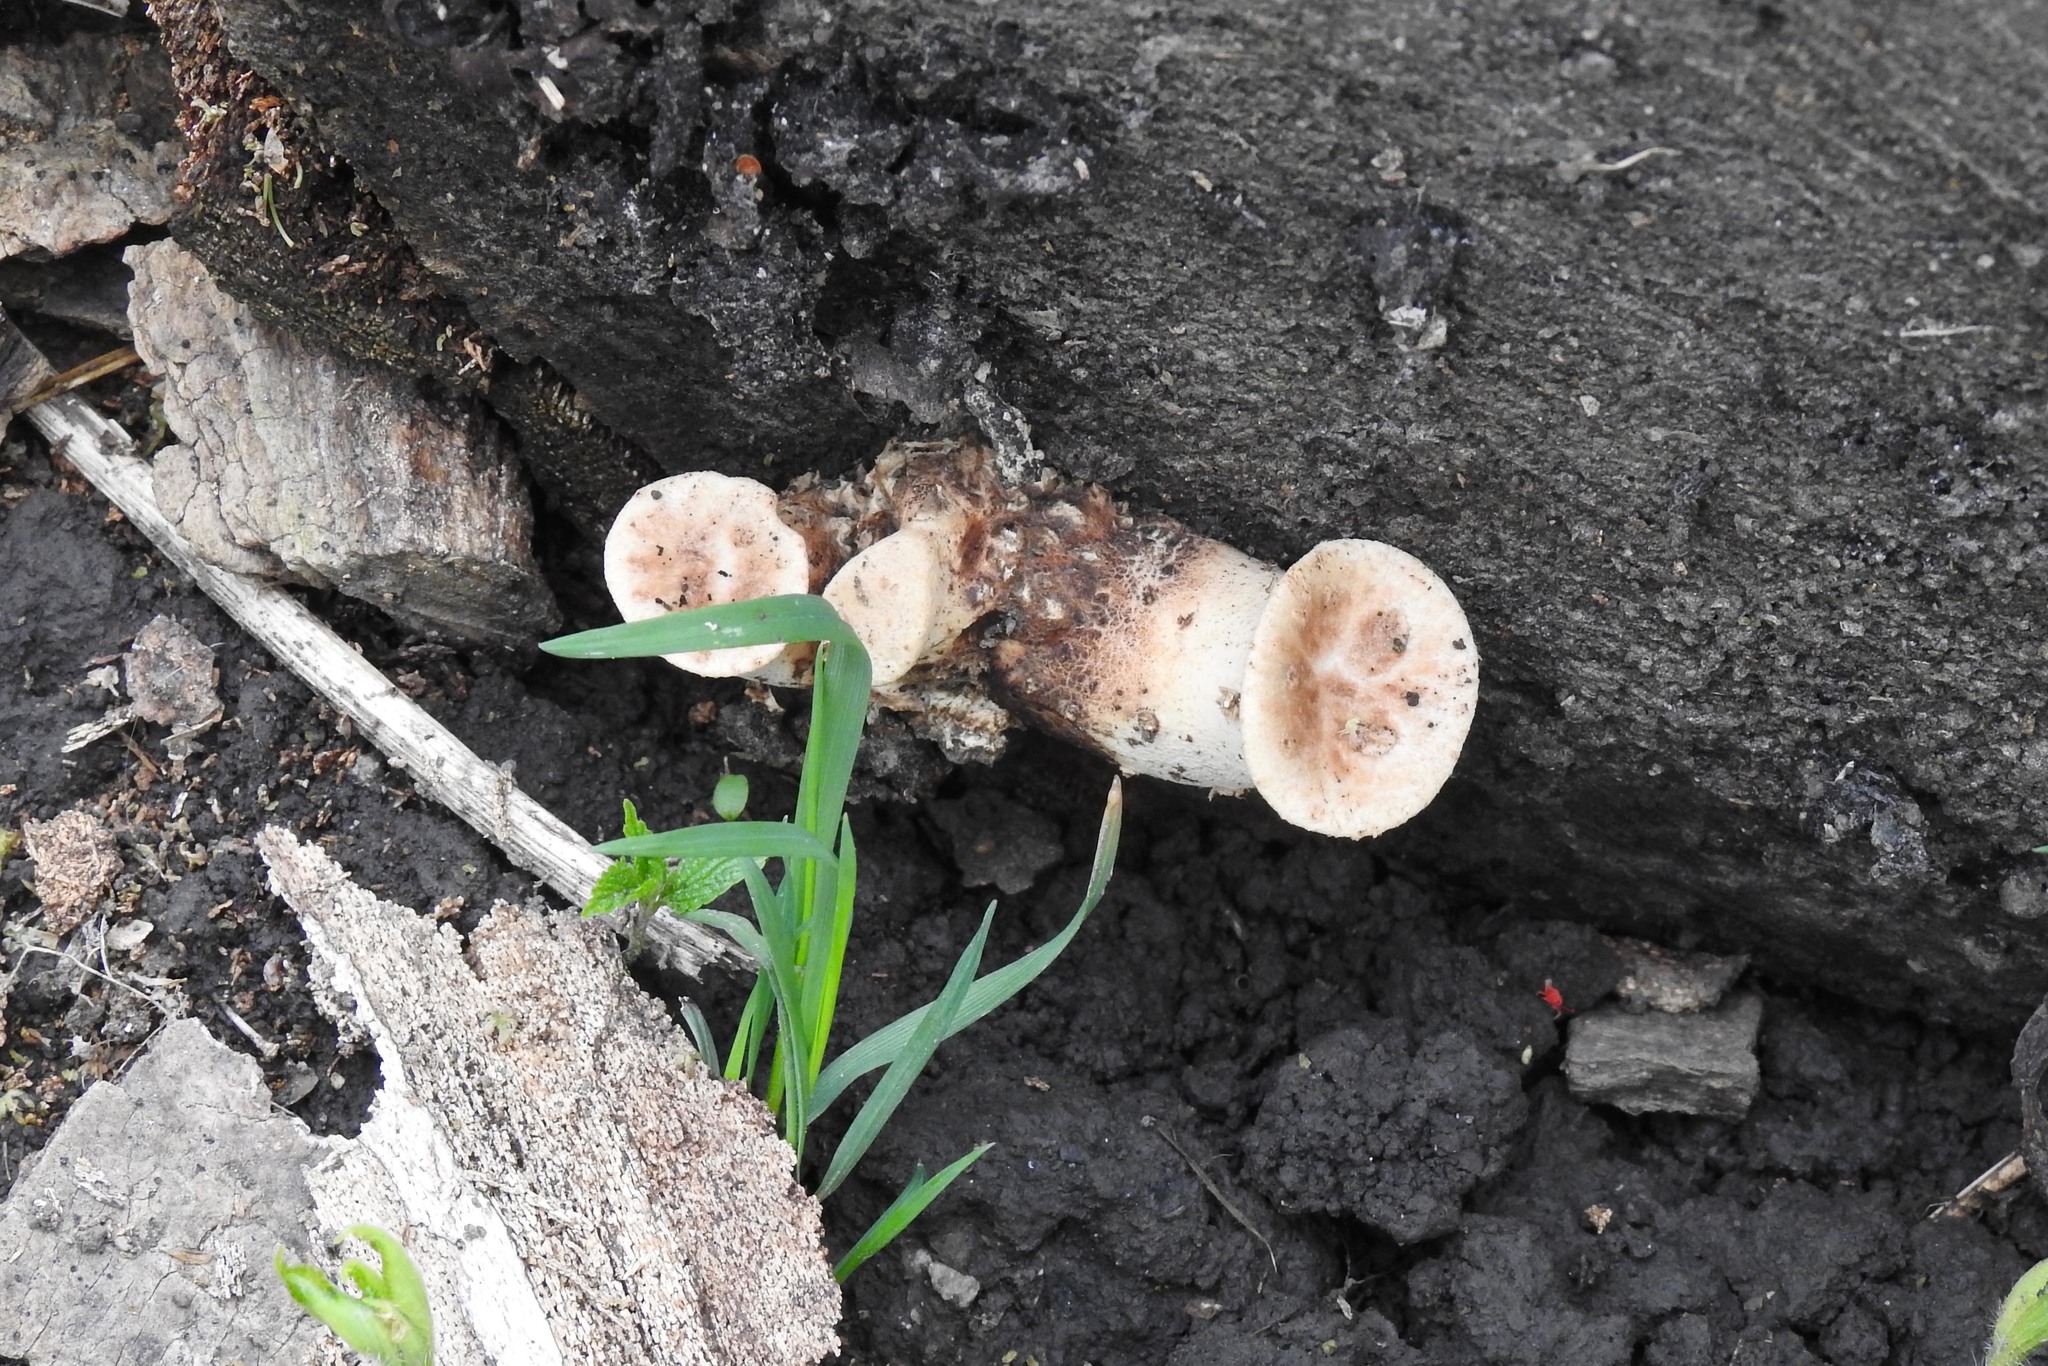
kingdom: Fungi
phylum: Basidiomycota
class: Agaricomycetes
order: Polyporales
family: Polyporaceae
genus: Cerioporus
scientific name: Cerioporus squamosus
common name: Dryad's saddle
